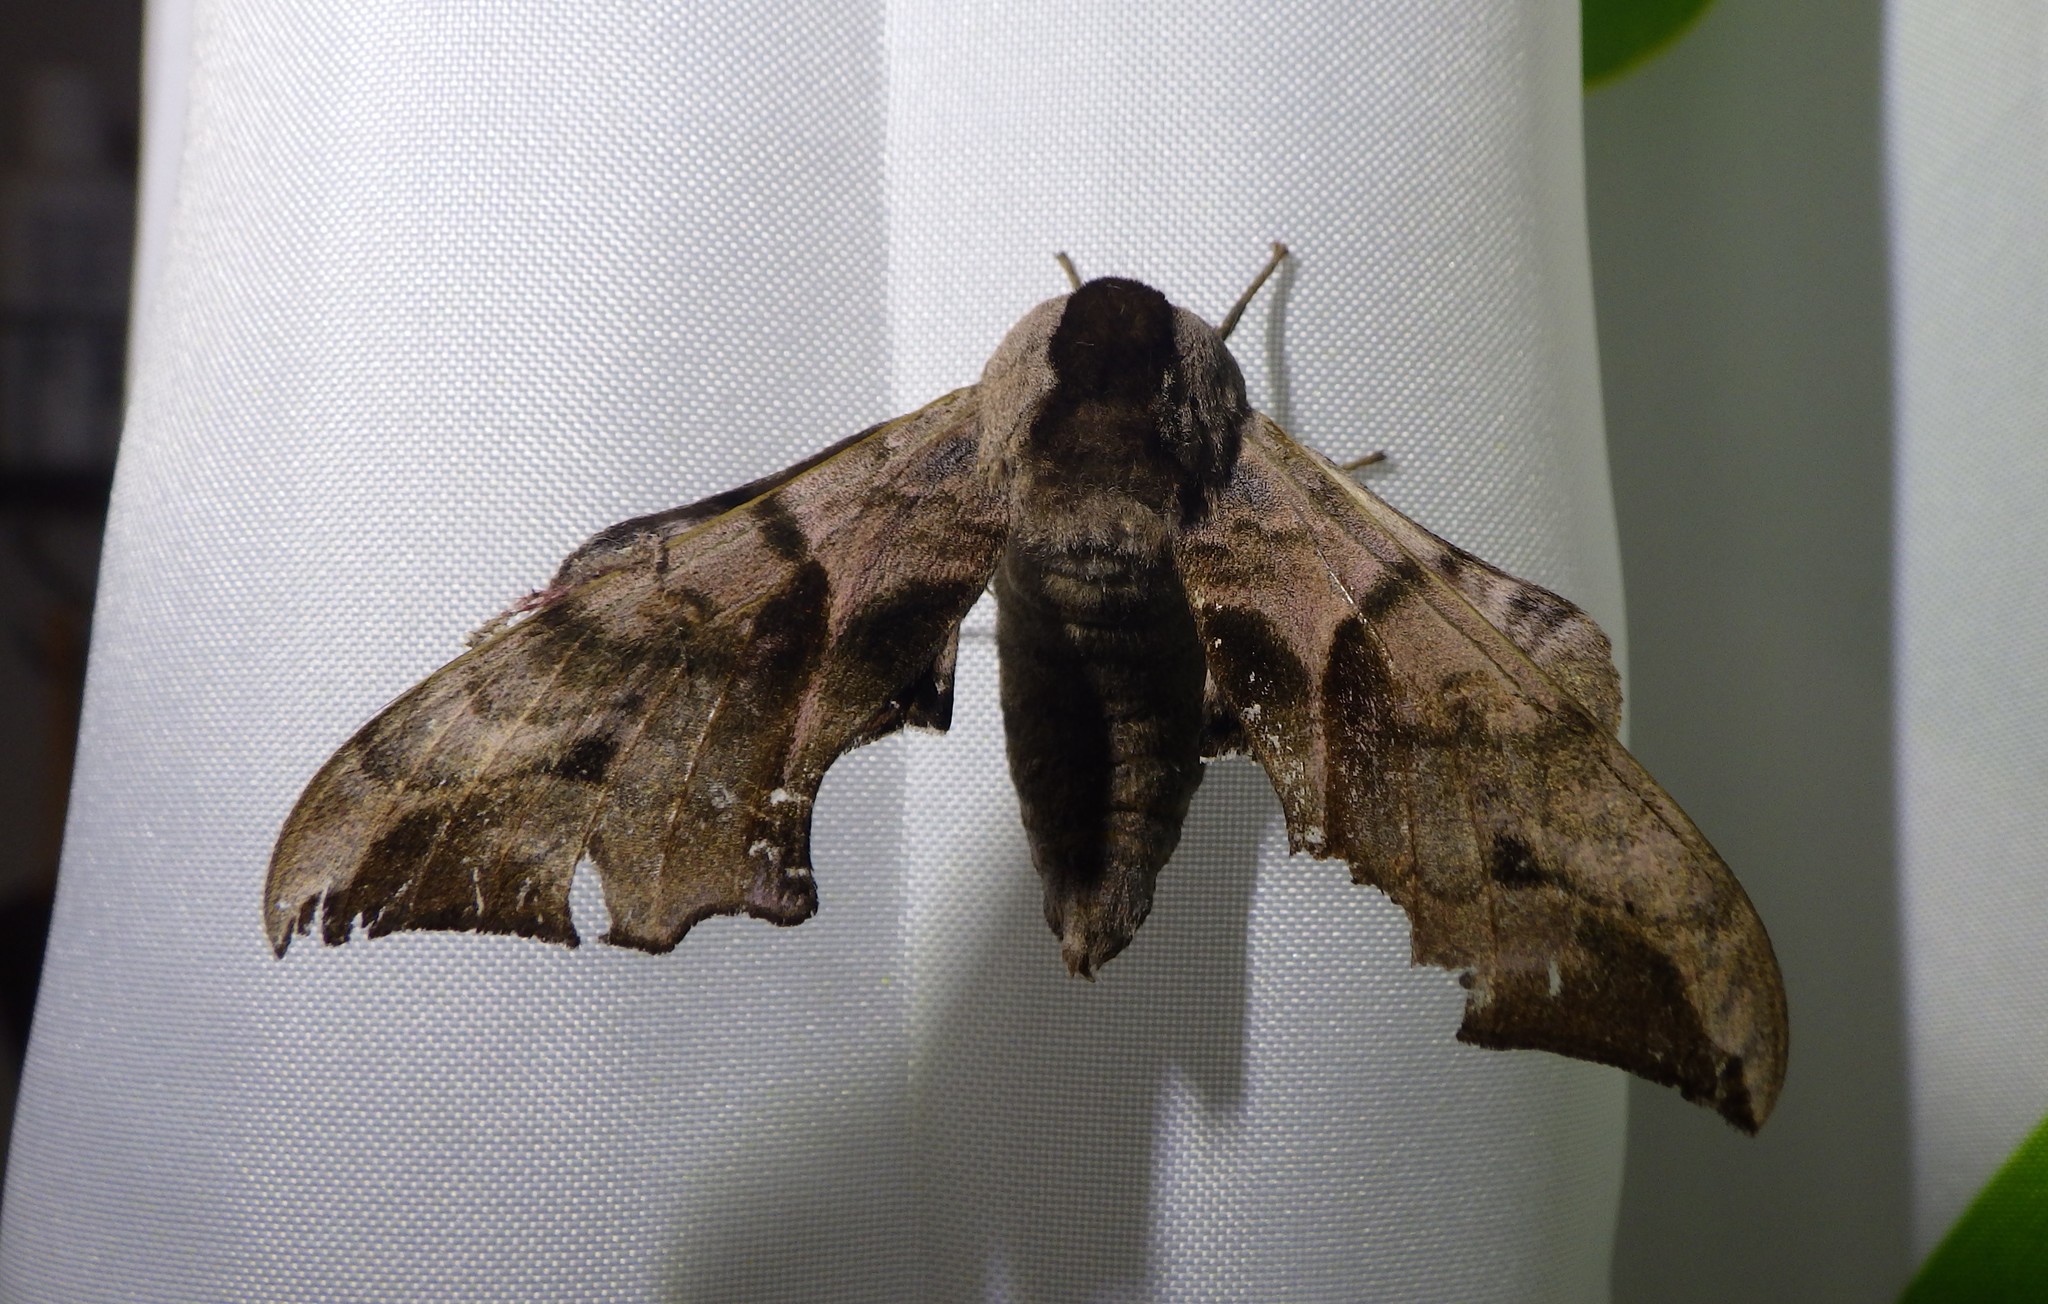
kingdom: Animalia
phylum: Arthropoda
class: Insecta
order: Lepidoptera
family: Sphingidae
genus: Smerinthus
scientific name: Smerinthus ocellata
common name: Eyed hawk-moth
